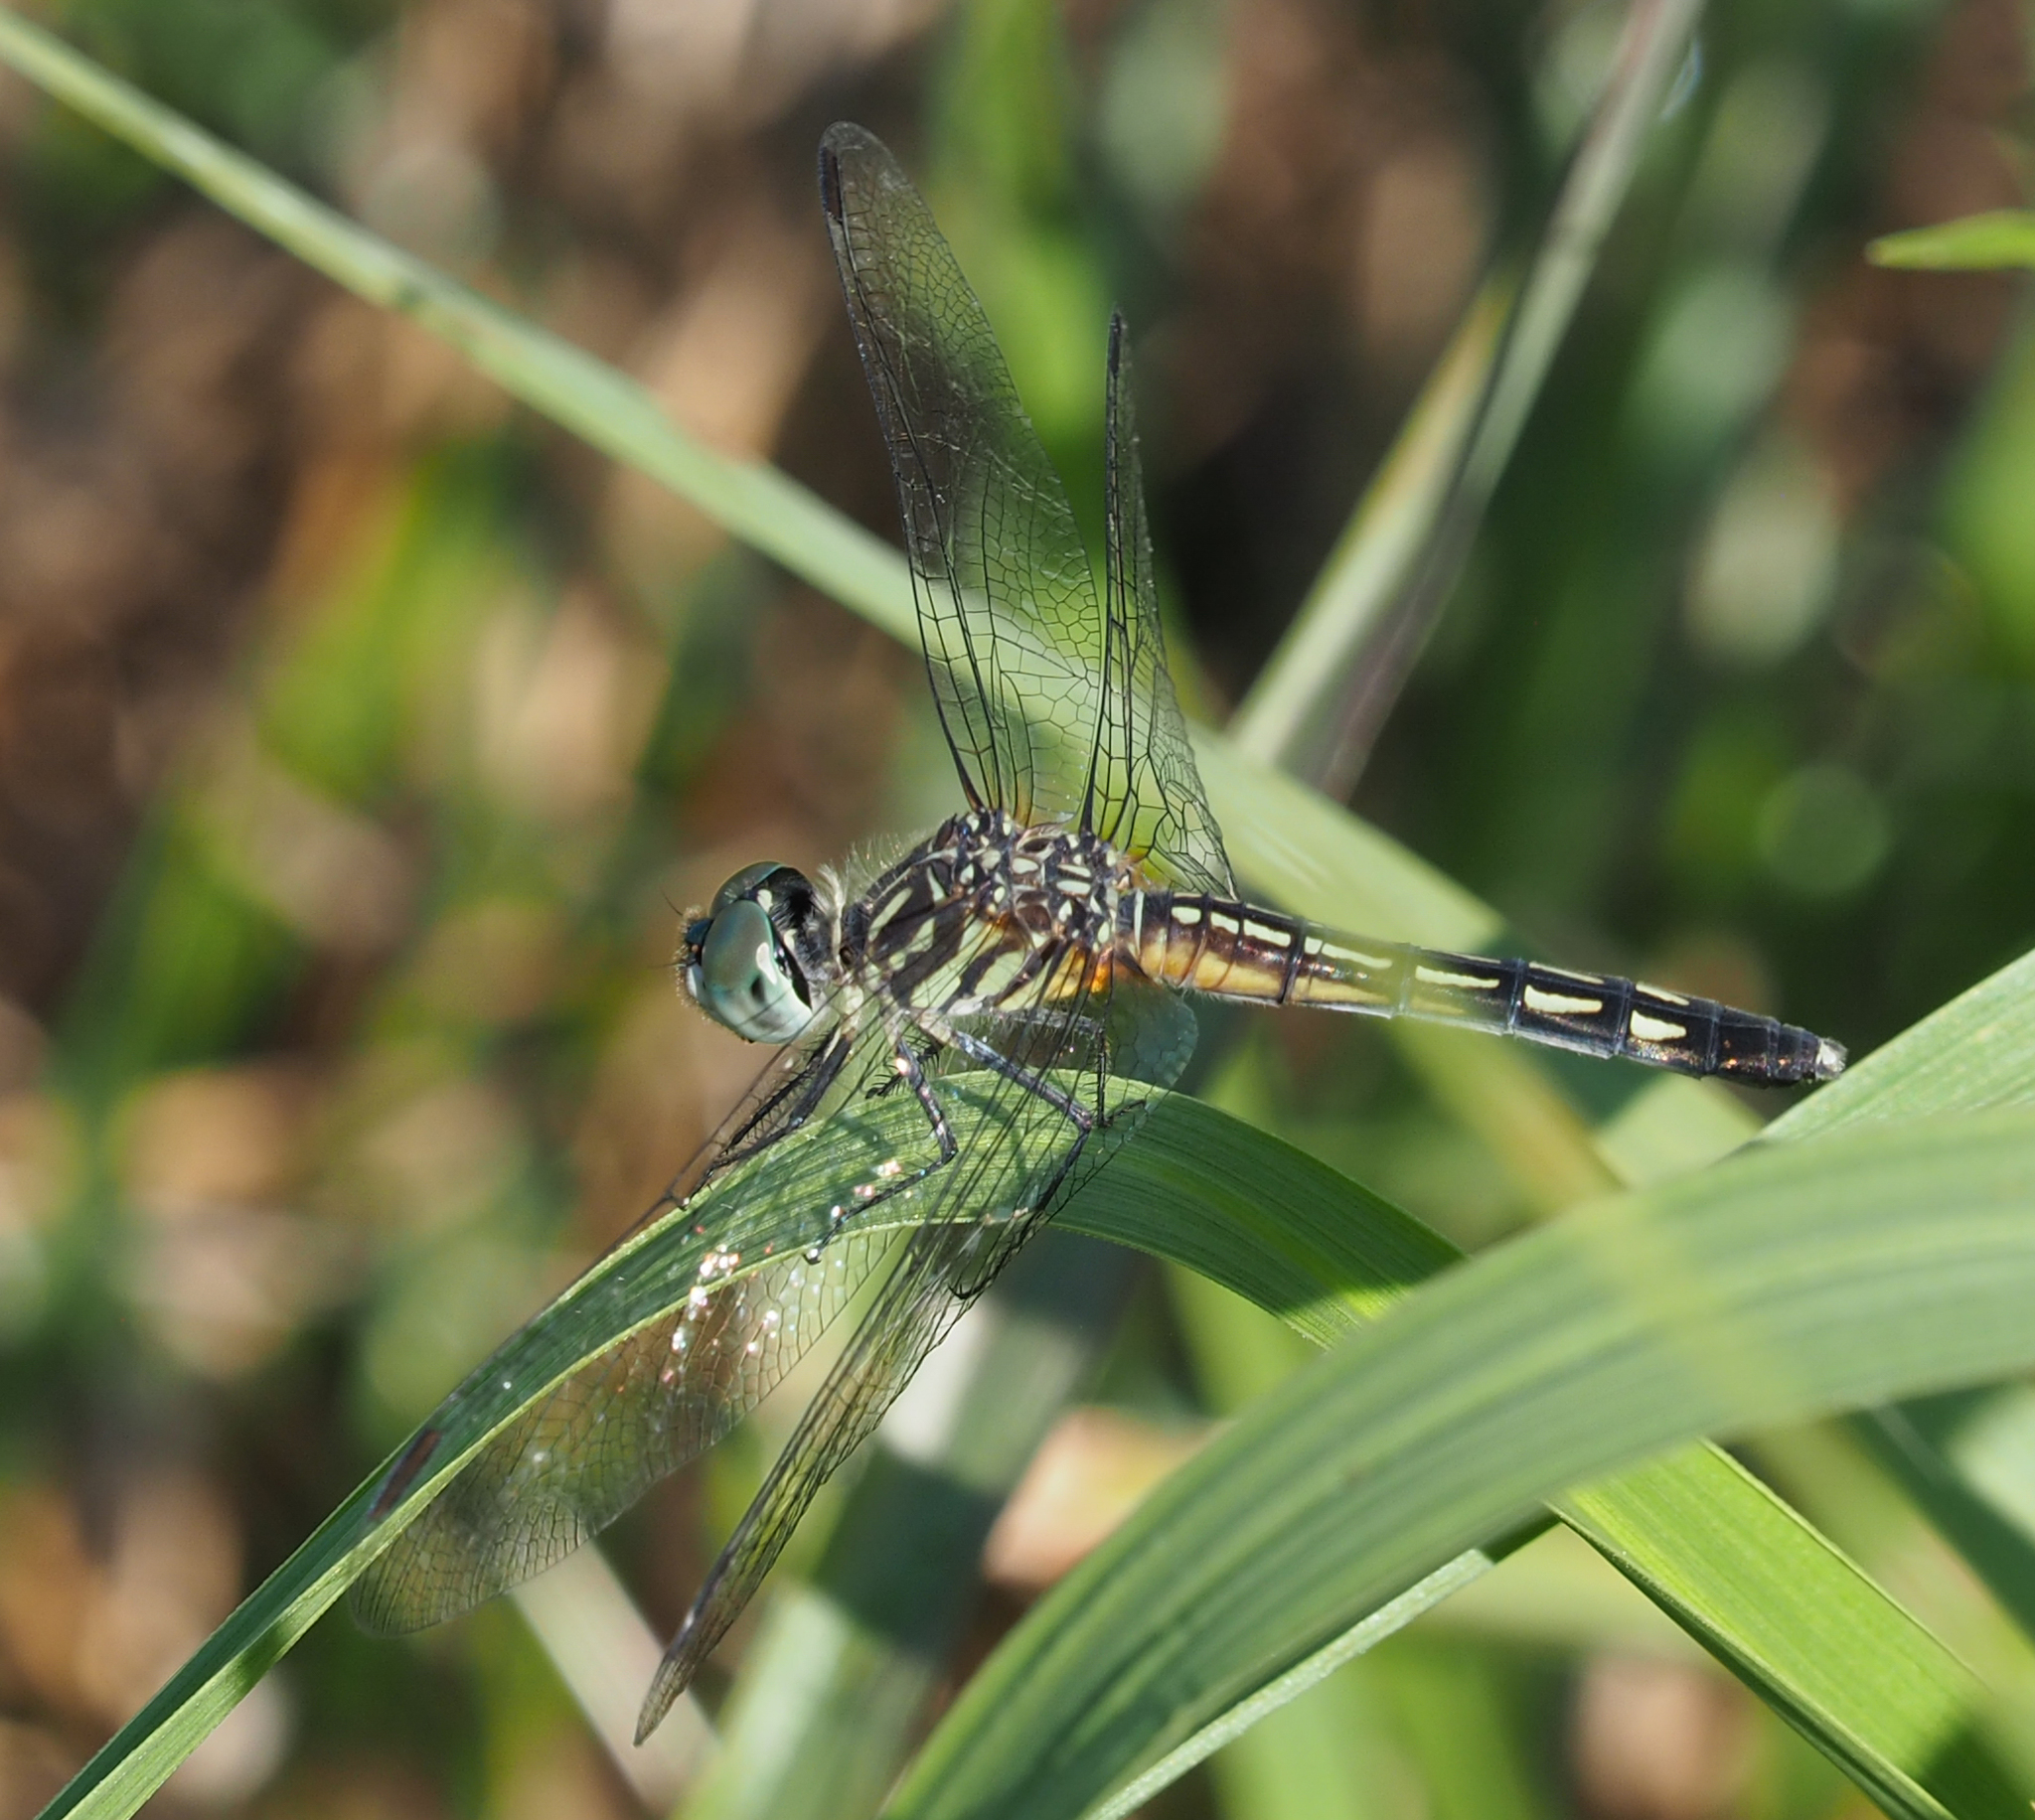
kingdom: Animalia
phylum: Arthropoda
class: Insecta
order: Odonata
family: Libellulidae
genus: Pachydiplax
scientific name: Pachydiplax longipennis
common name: Blue dasher
